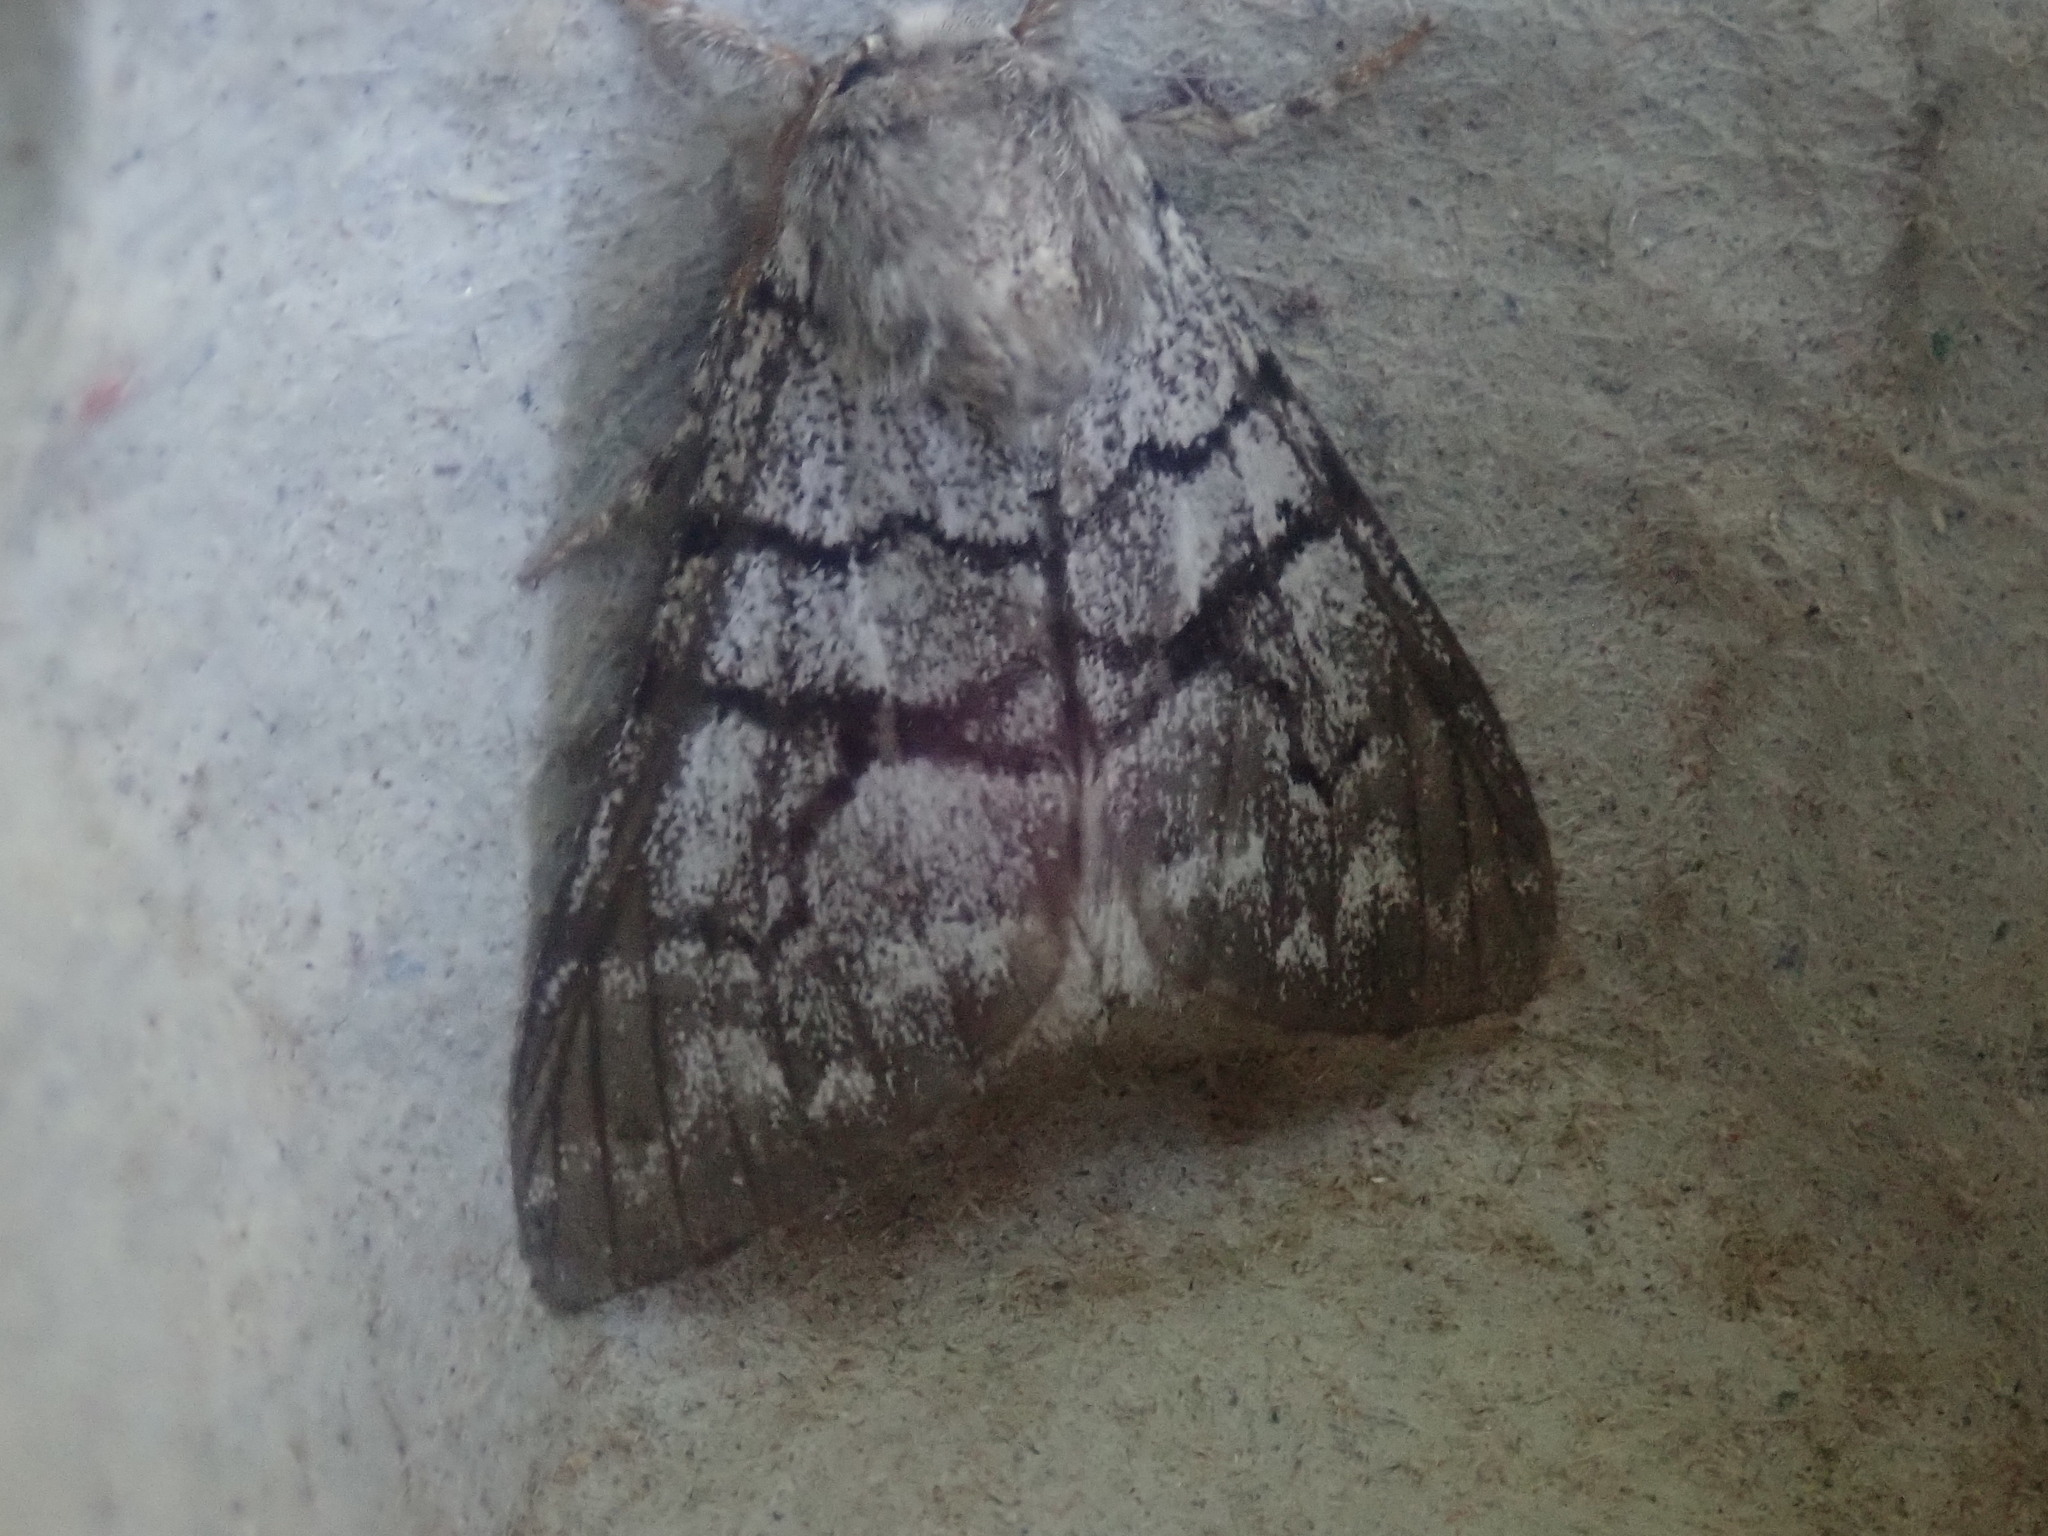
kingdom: Animalia
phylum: Arthropoda
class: Insecta
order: Lepidoptera
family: Noctuidae
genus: Panthea
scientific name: Panthea furcilla
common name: Eastern panthea moth
